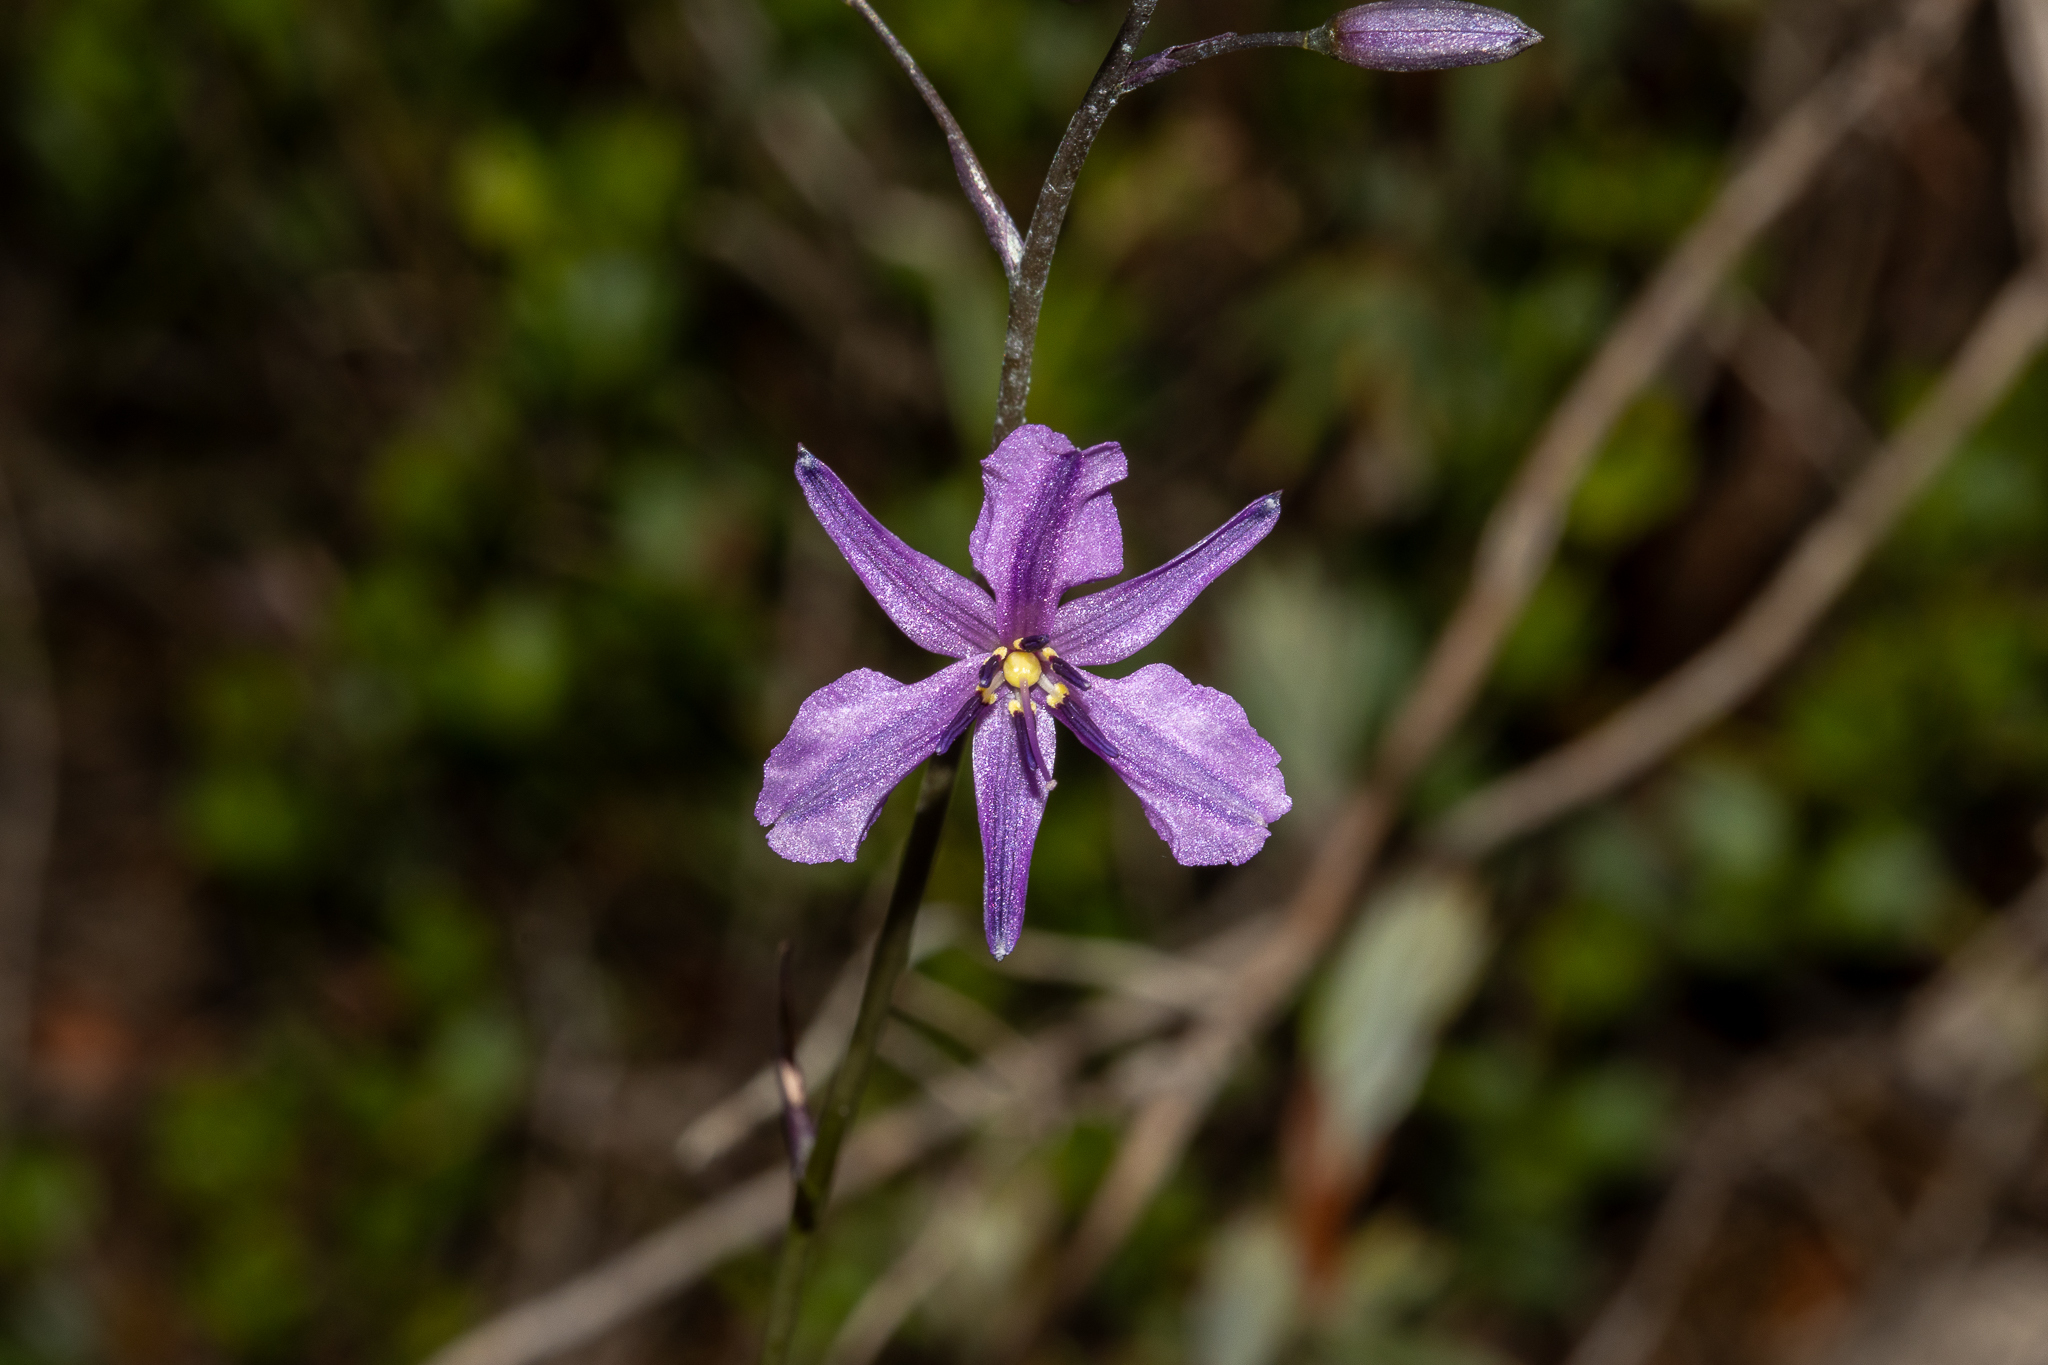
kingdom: Plantae
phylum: Tracheophyta
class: Liliopsida
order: Asparagales
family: Asparagaceae
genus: Arthropodium
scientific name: Arthropodium strictum
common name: Chocolate-lily
